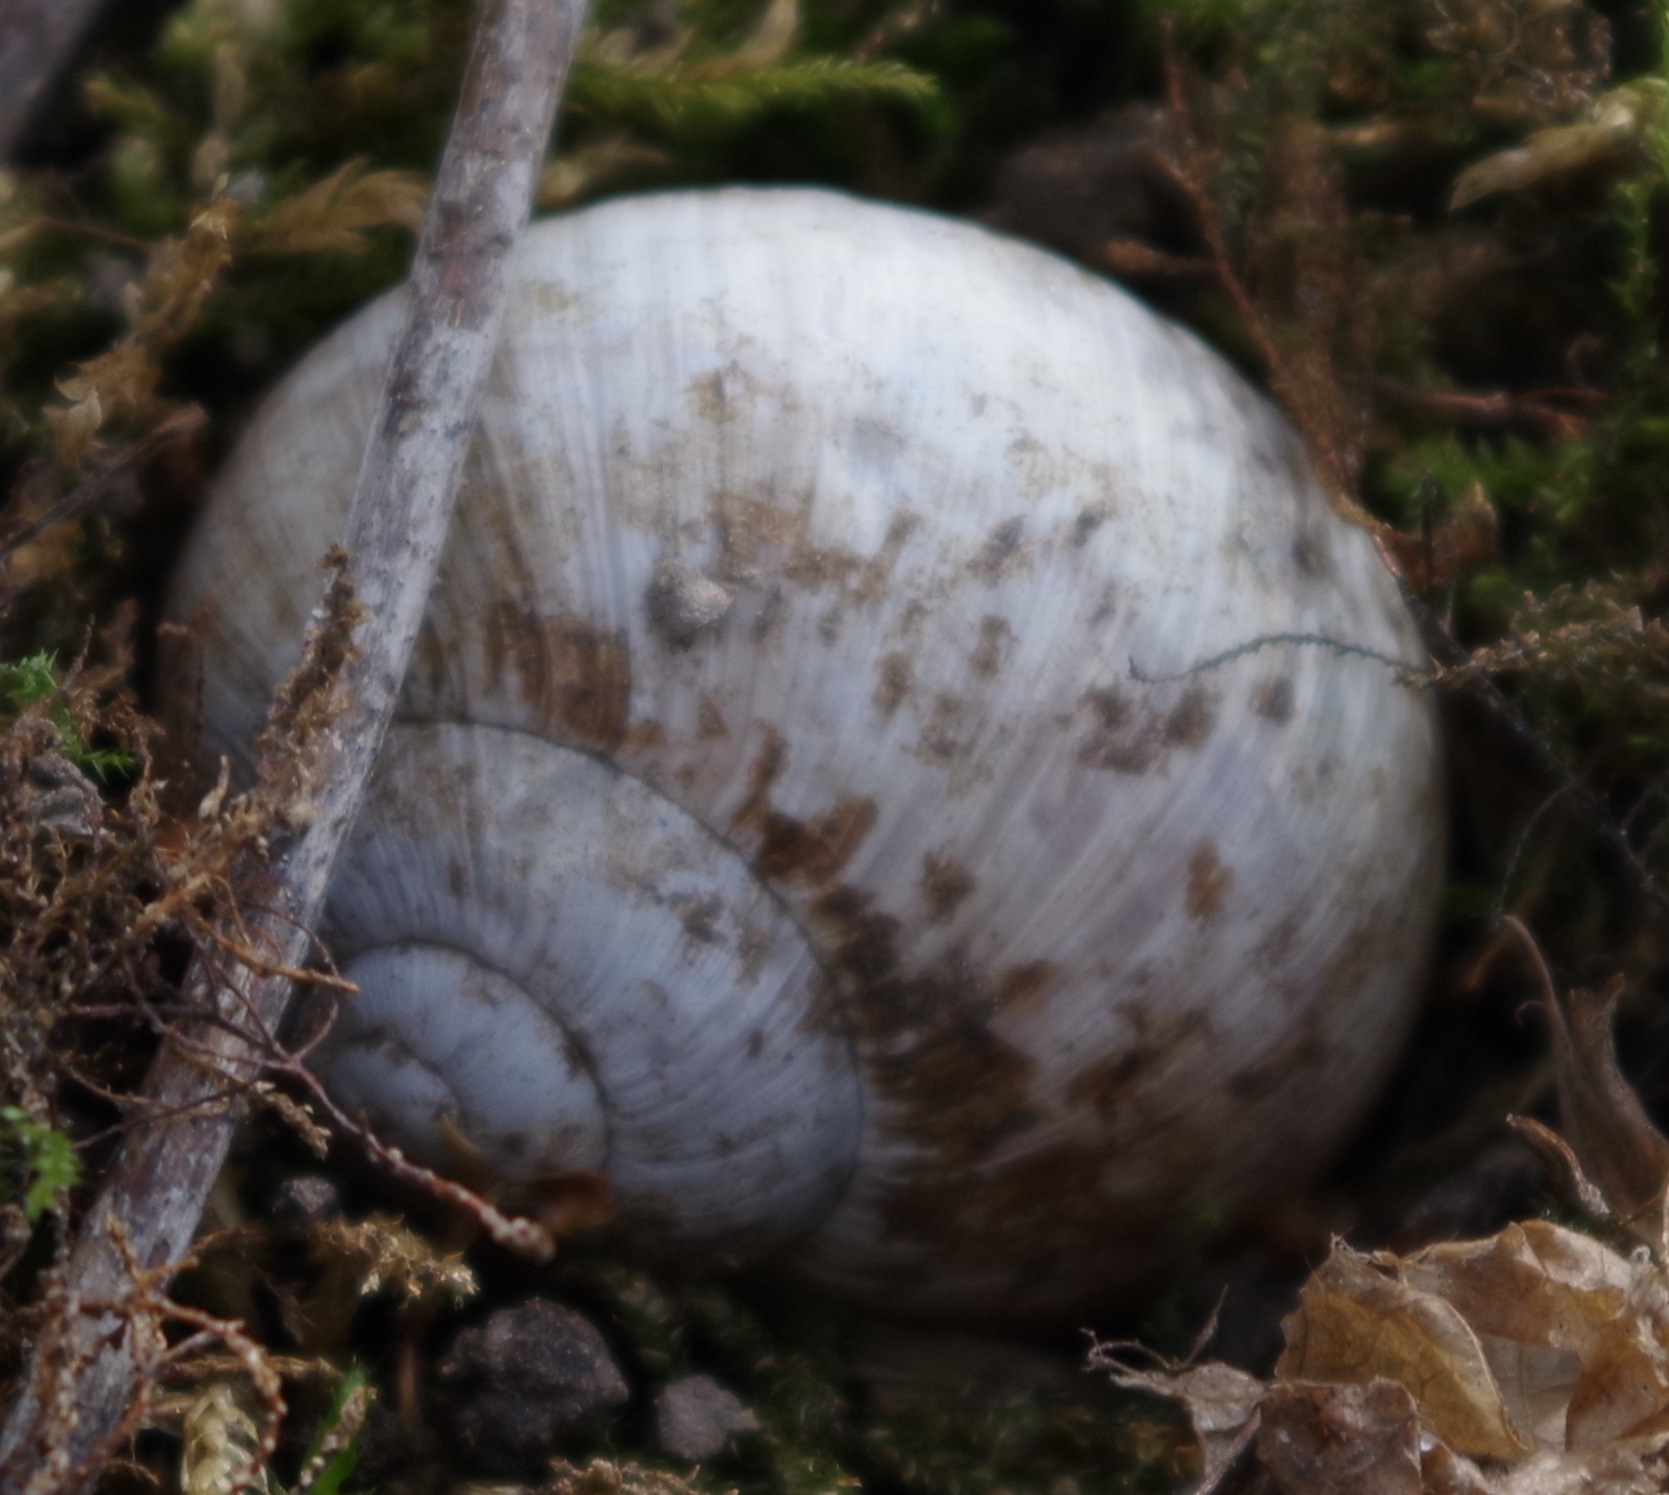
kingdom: Animalia
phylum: Mollusca
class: Gastropoda
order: Stylommatophora
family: Helicidae
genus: Helix
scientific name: Helix pomatia
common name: Roman snail
